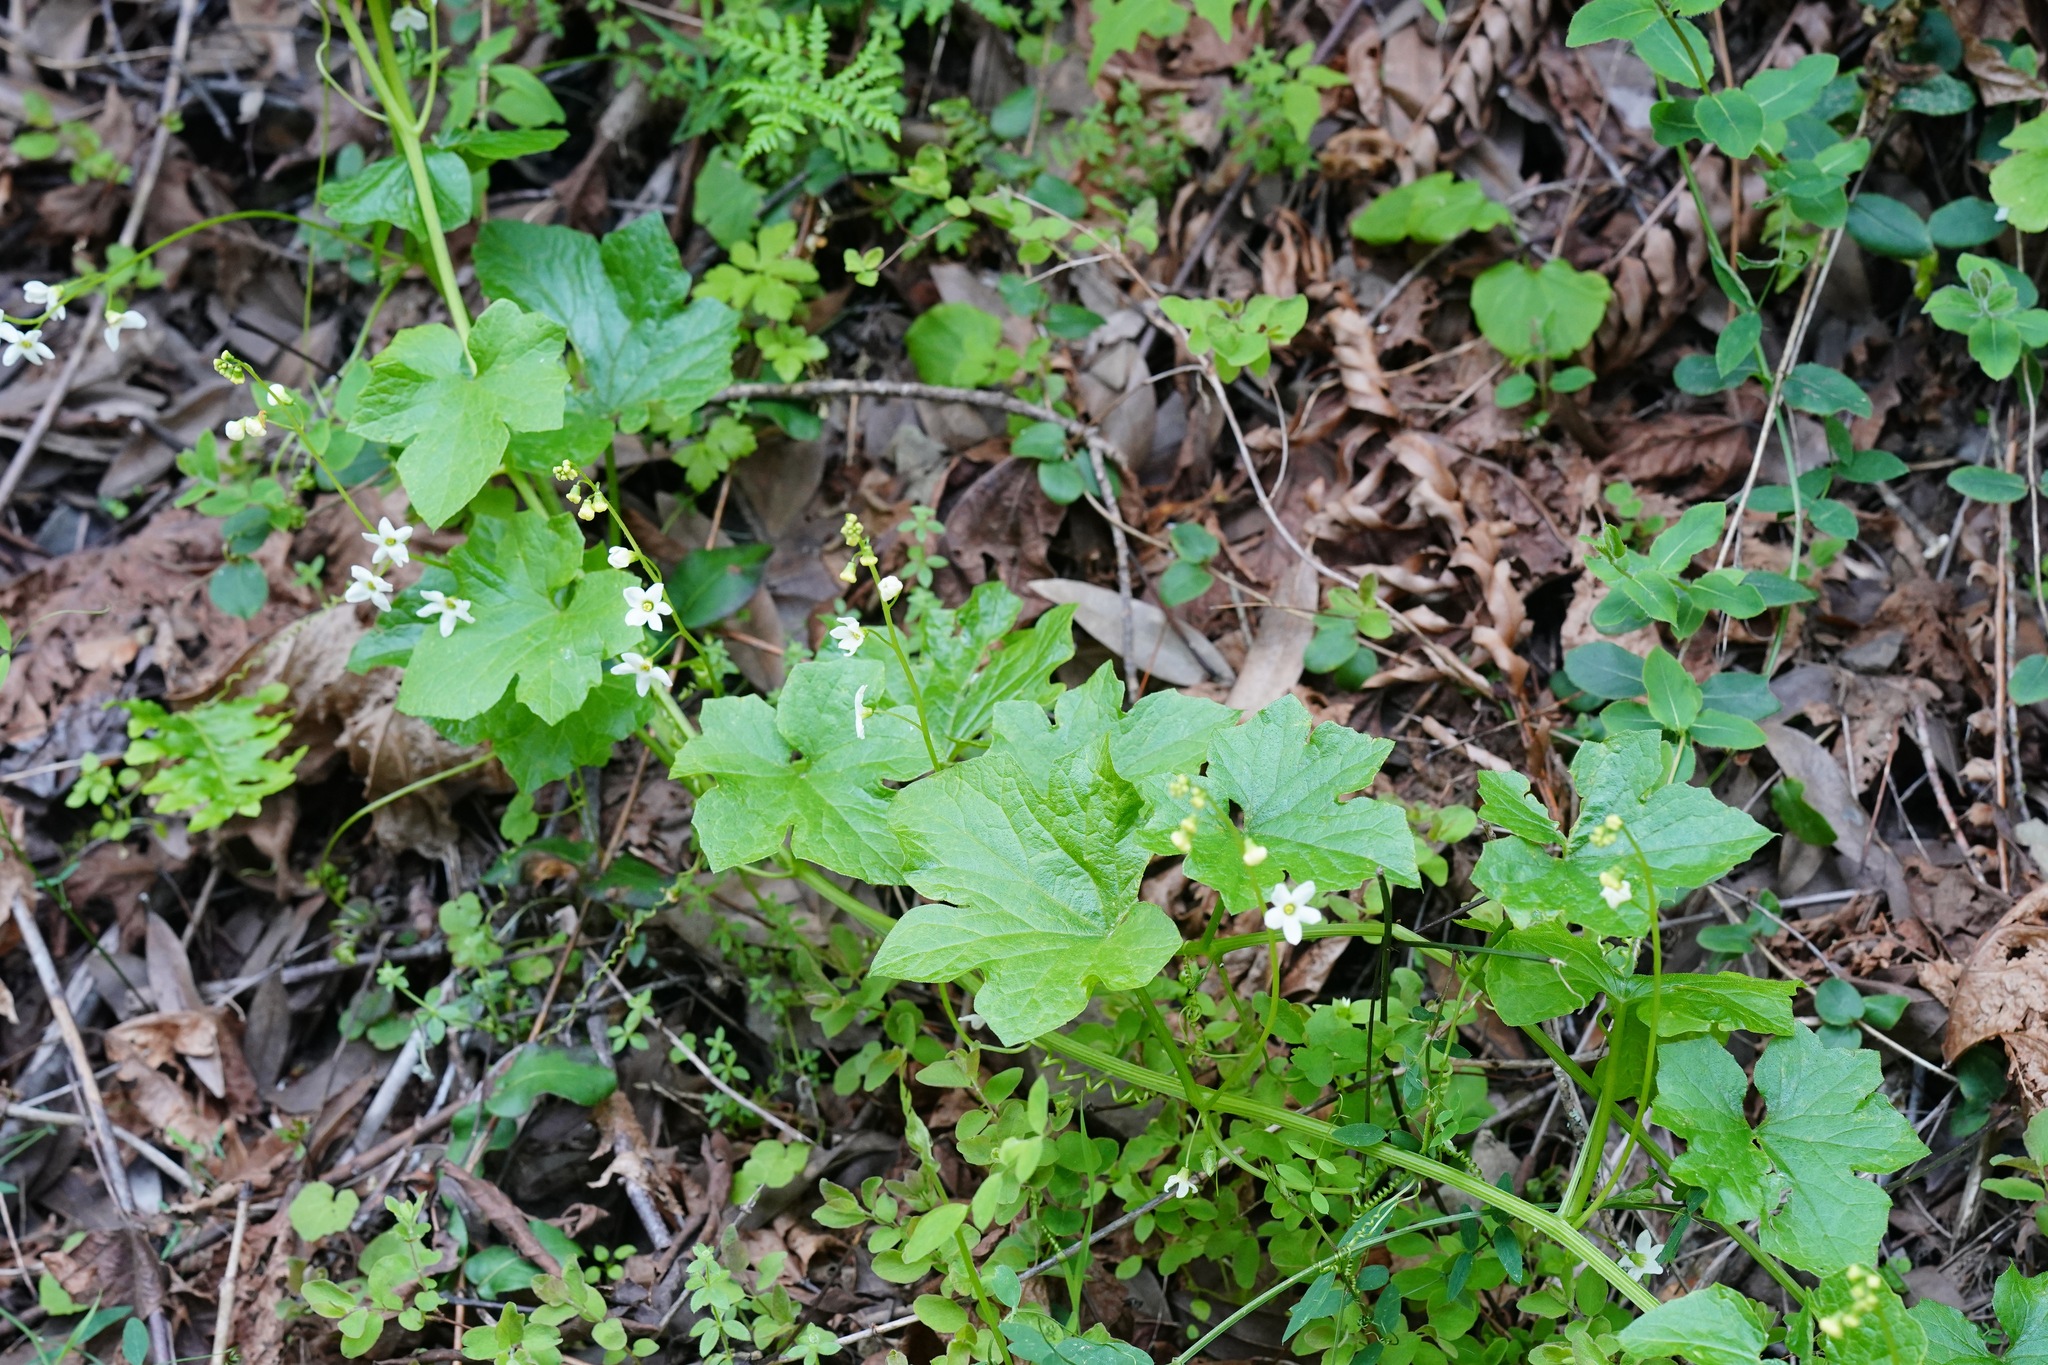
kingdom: Plantae
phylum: Tracheophyta
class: Magnoliopsida
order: Cucurbitales
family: Cucurbitaceae
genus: Marah
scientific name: Marah oregana
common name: Coastal manroot
